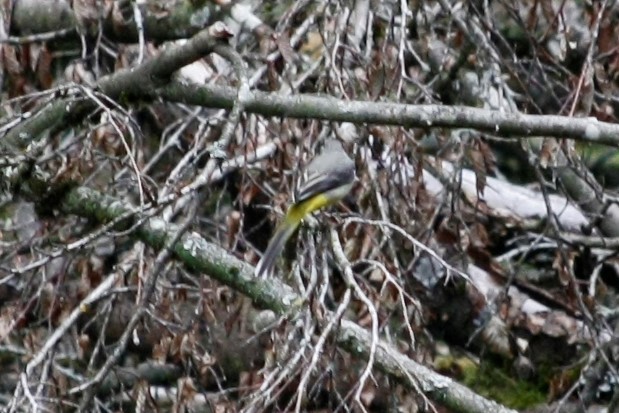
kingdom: Animalia
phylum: Chordata
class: Aves
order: Passeriformes
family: Motacillidae
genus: Motacilla
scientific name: Motacilla cinerea
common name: Grey wagtail
